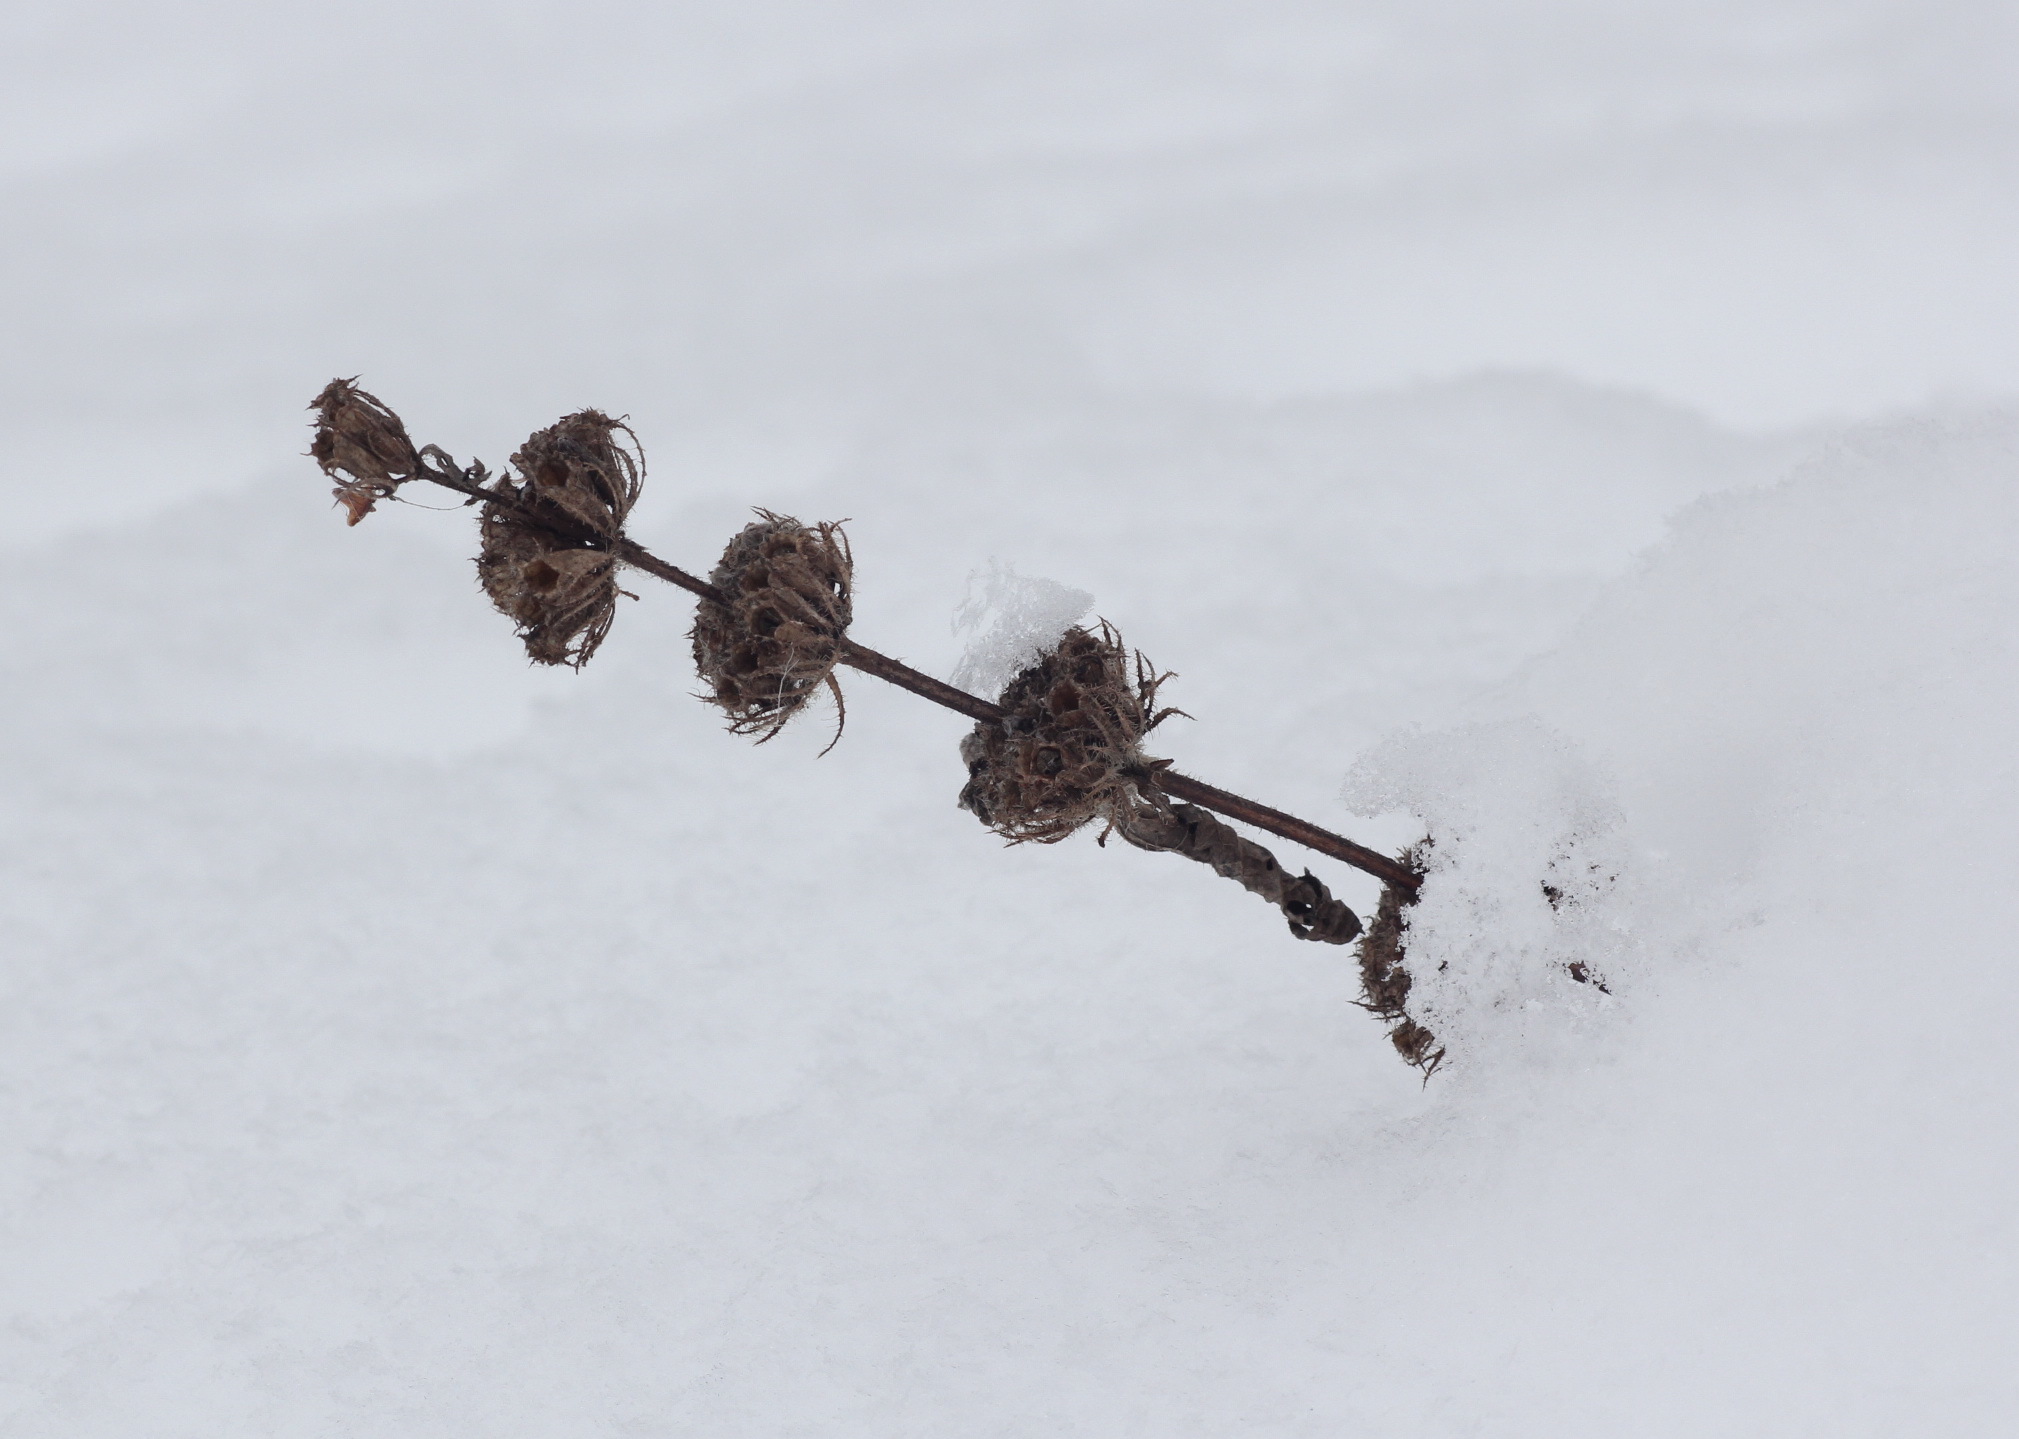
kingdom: Plantae
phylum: Tracheophyta
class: Magnoliopsida
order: Lamiales
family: Lamiaceae
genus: Phlomoides
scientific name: Phlomoides tuberosa
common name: Tuberous jerusalem sage
